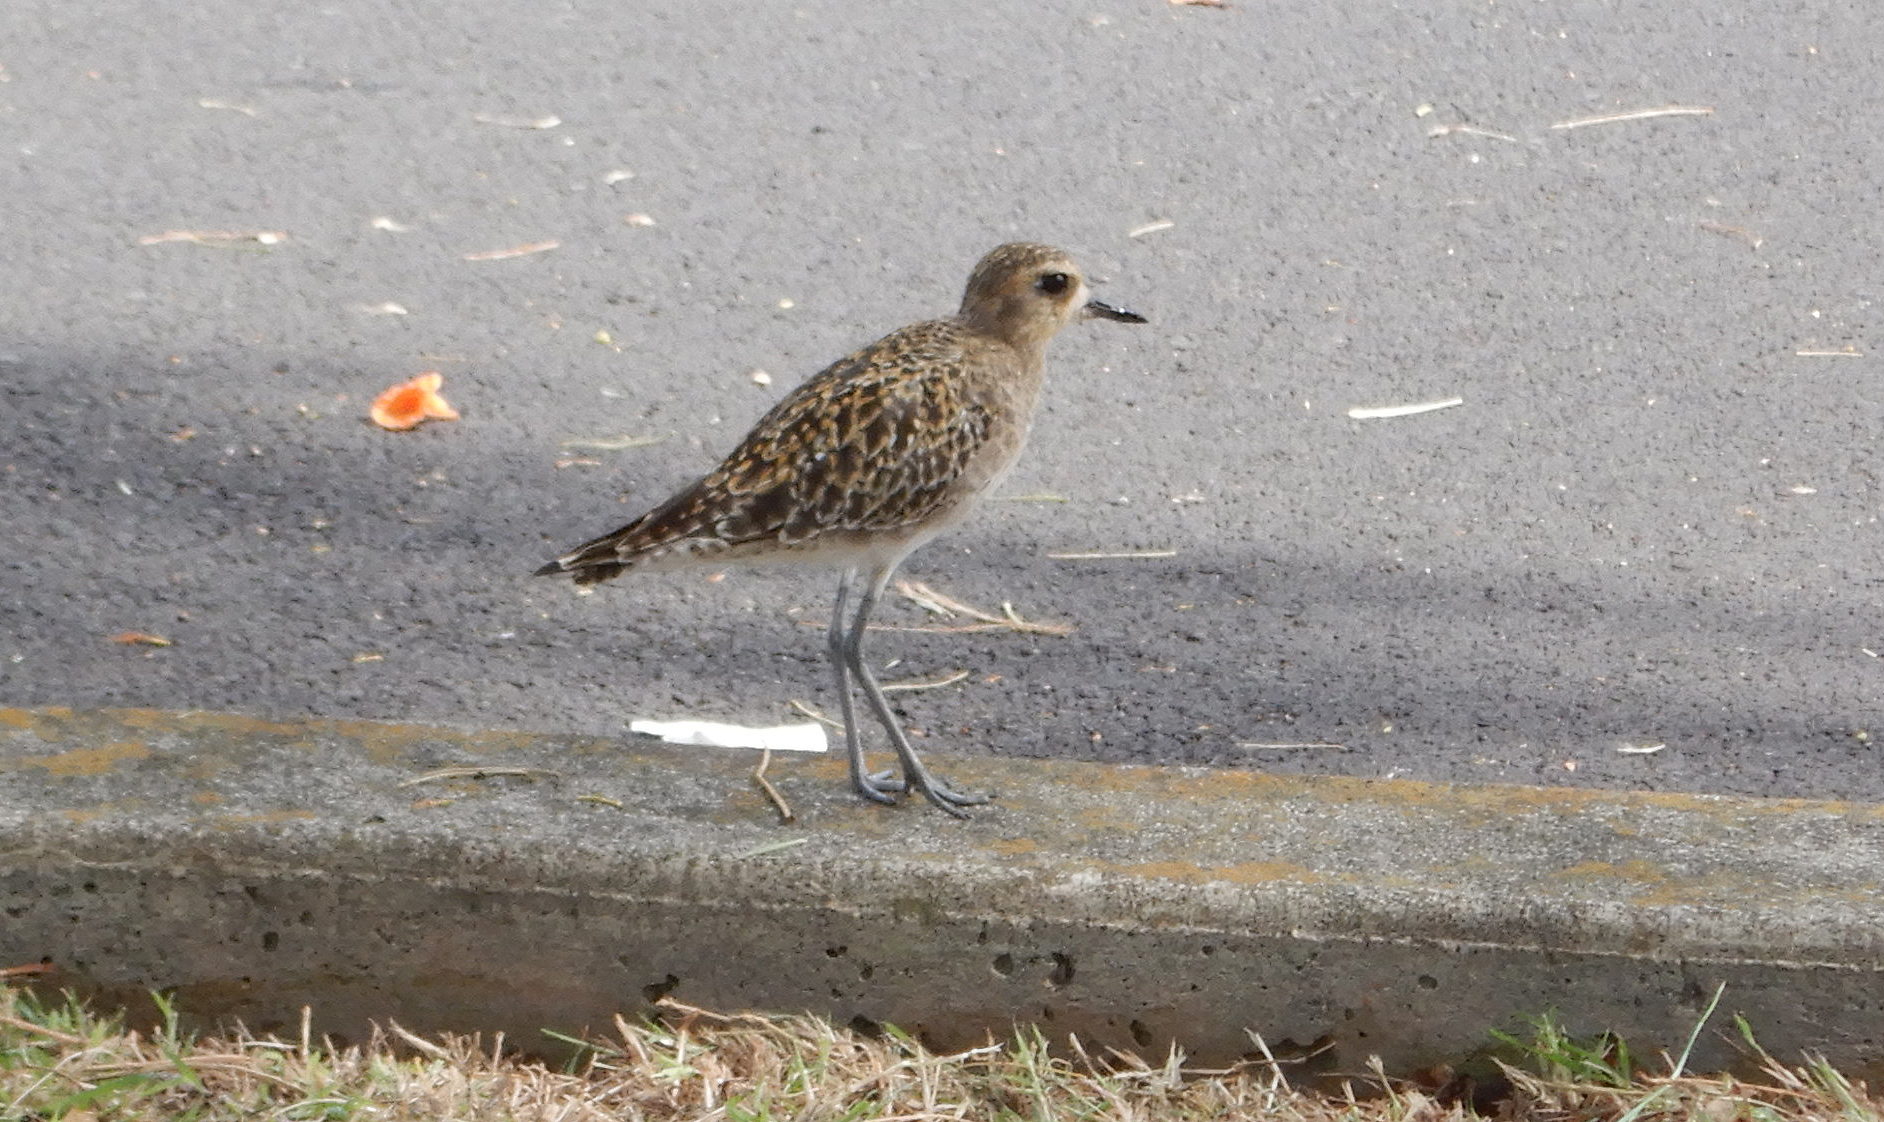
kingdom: Animalia
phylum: Chordata
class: Aves
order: Charadriiformes
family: Charadriidae
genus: Pluvialis
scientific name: Pluvialis fulva
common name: Pacific golden plover
